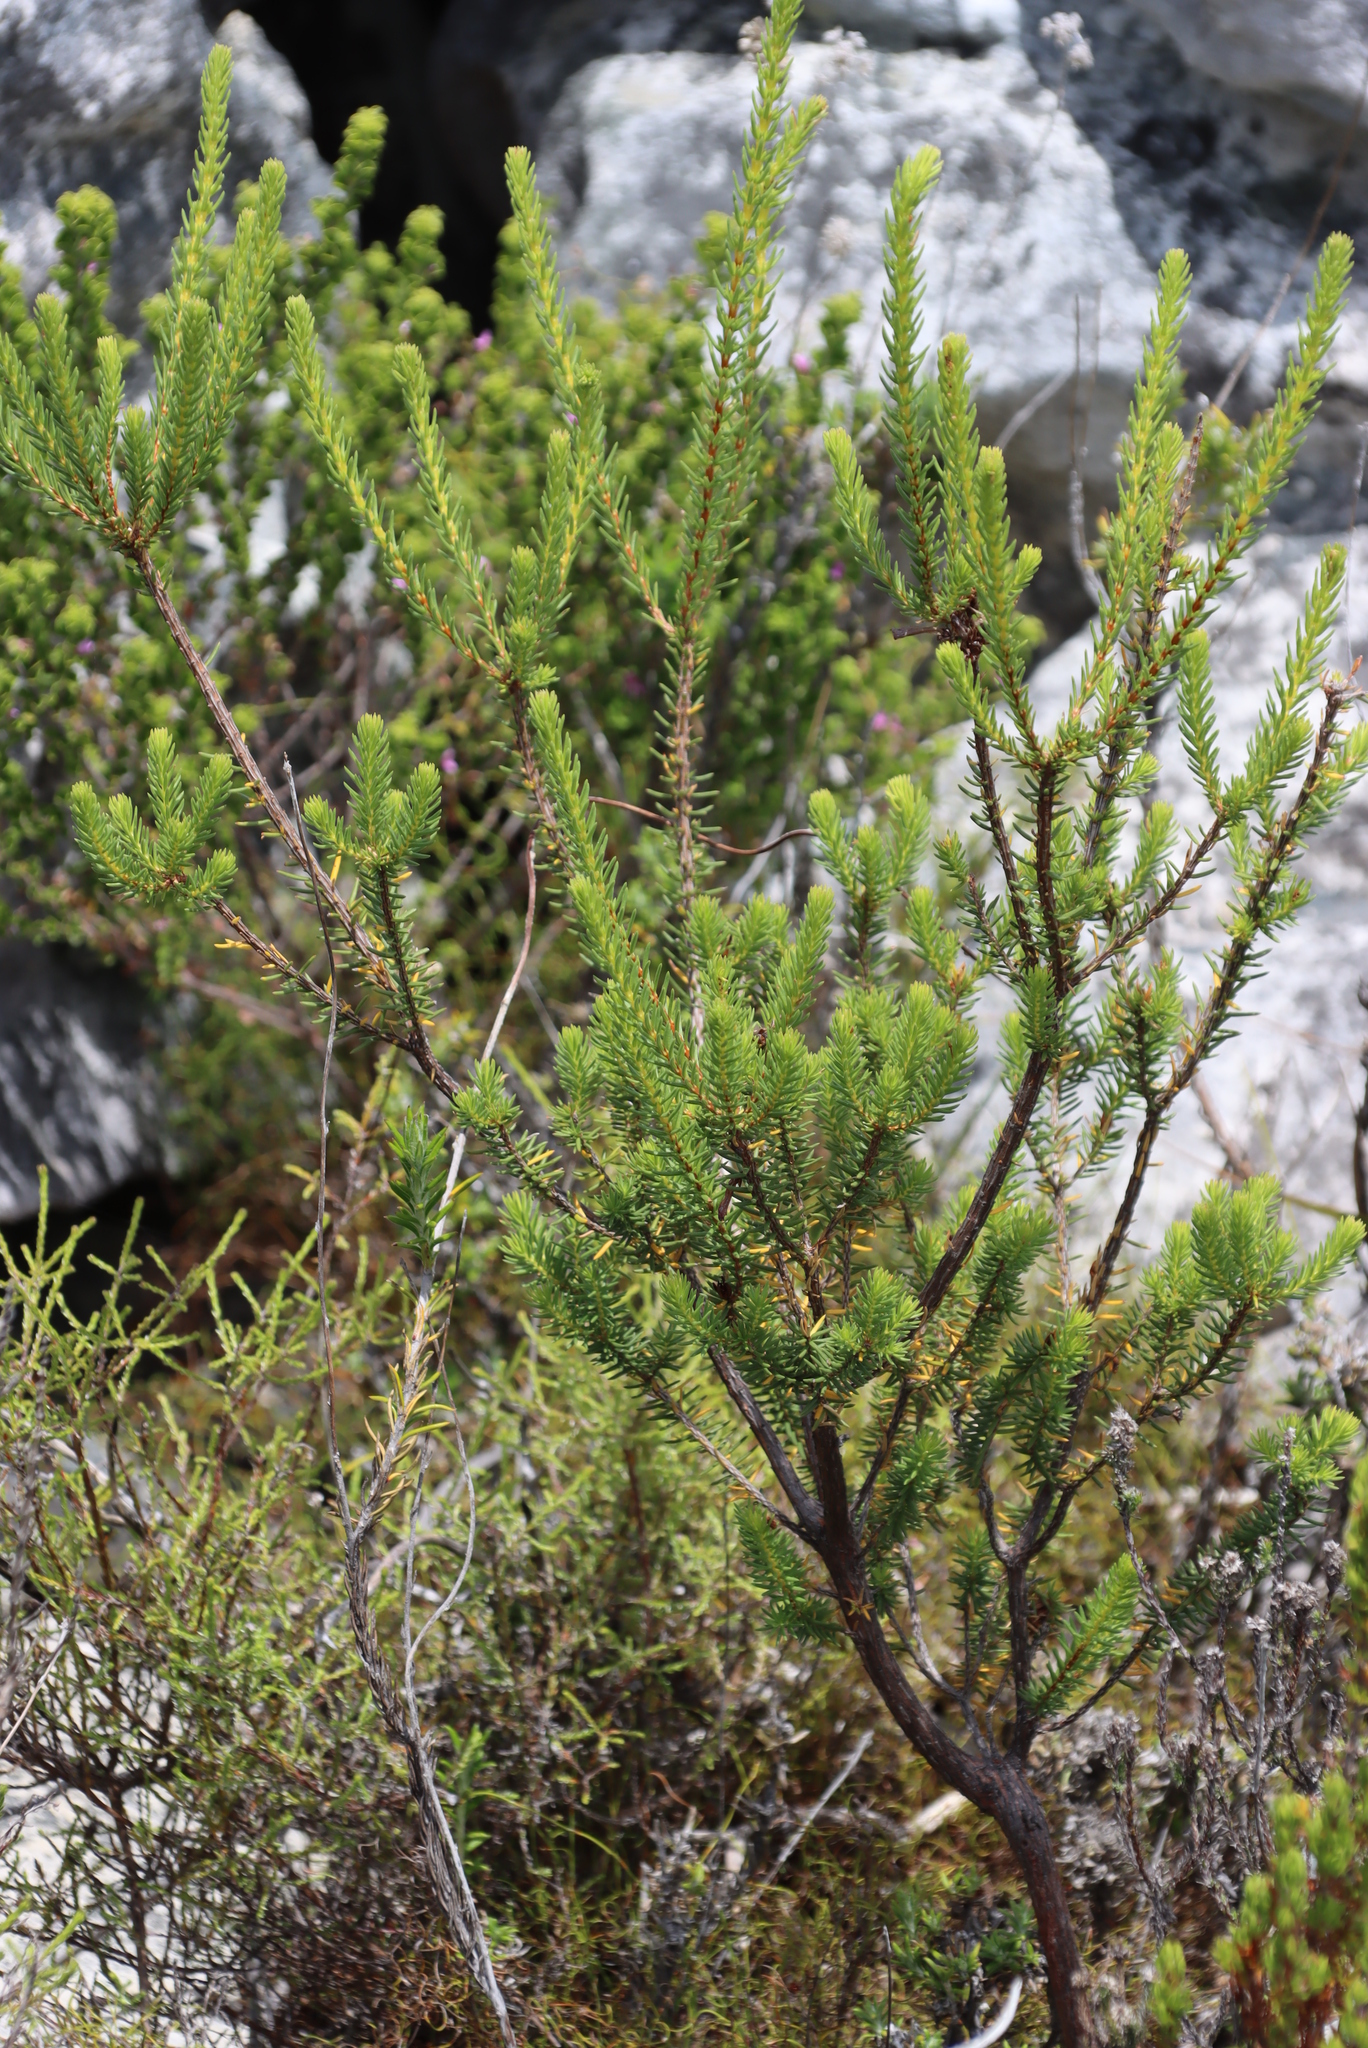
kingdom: Plantae
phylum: Tracheophyta
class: Magnoliopsida
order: Ericales
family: Ericaceae
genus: Erica
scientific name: Erica mammosa
